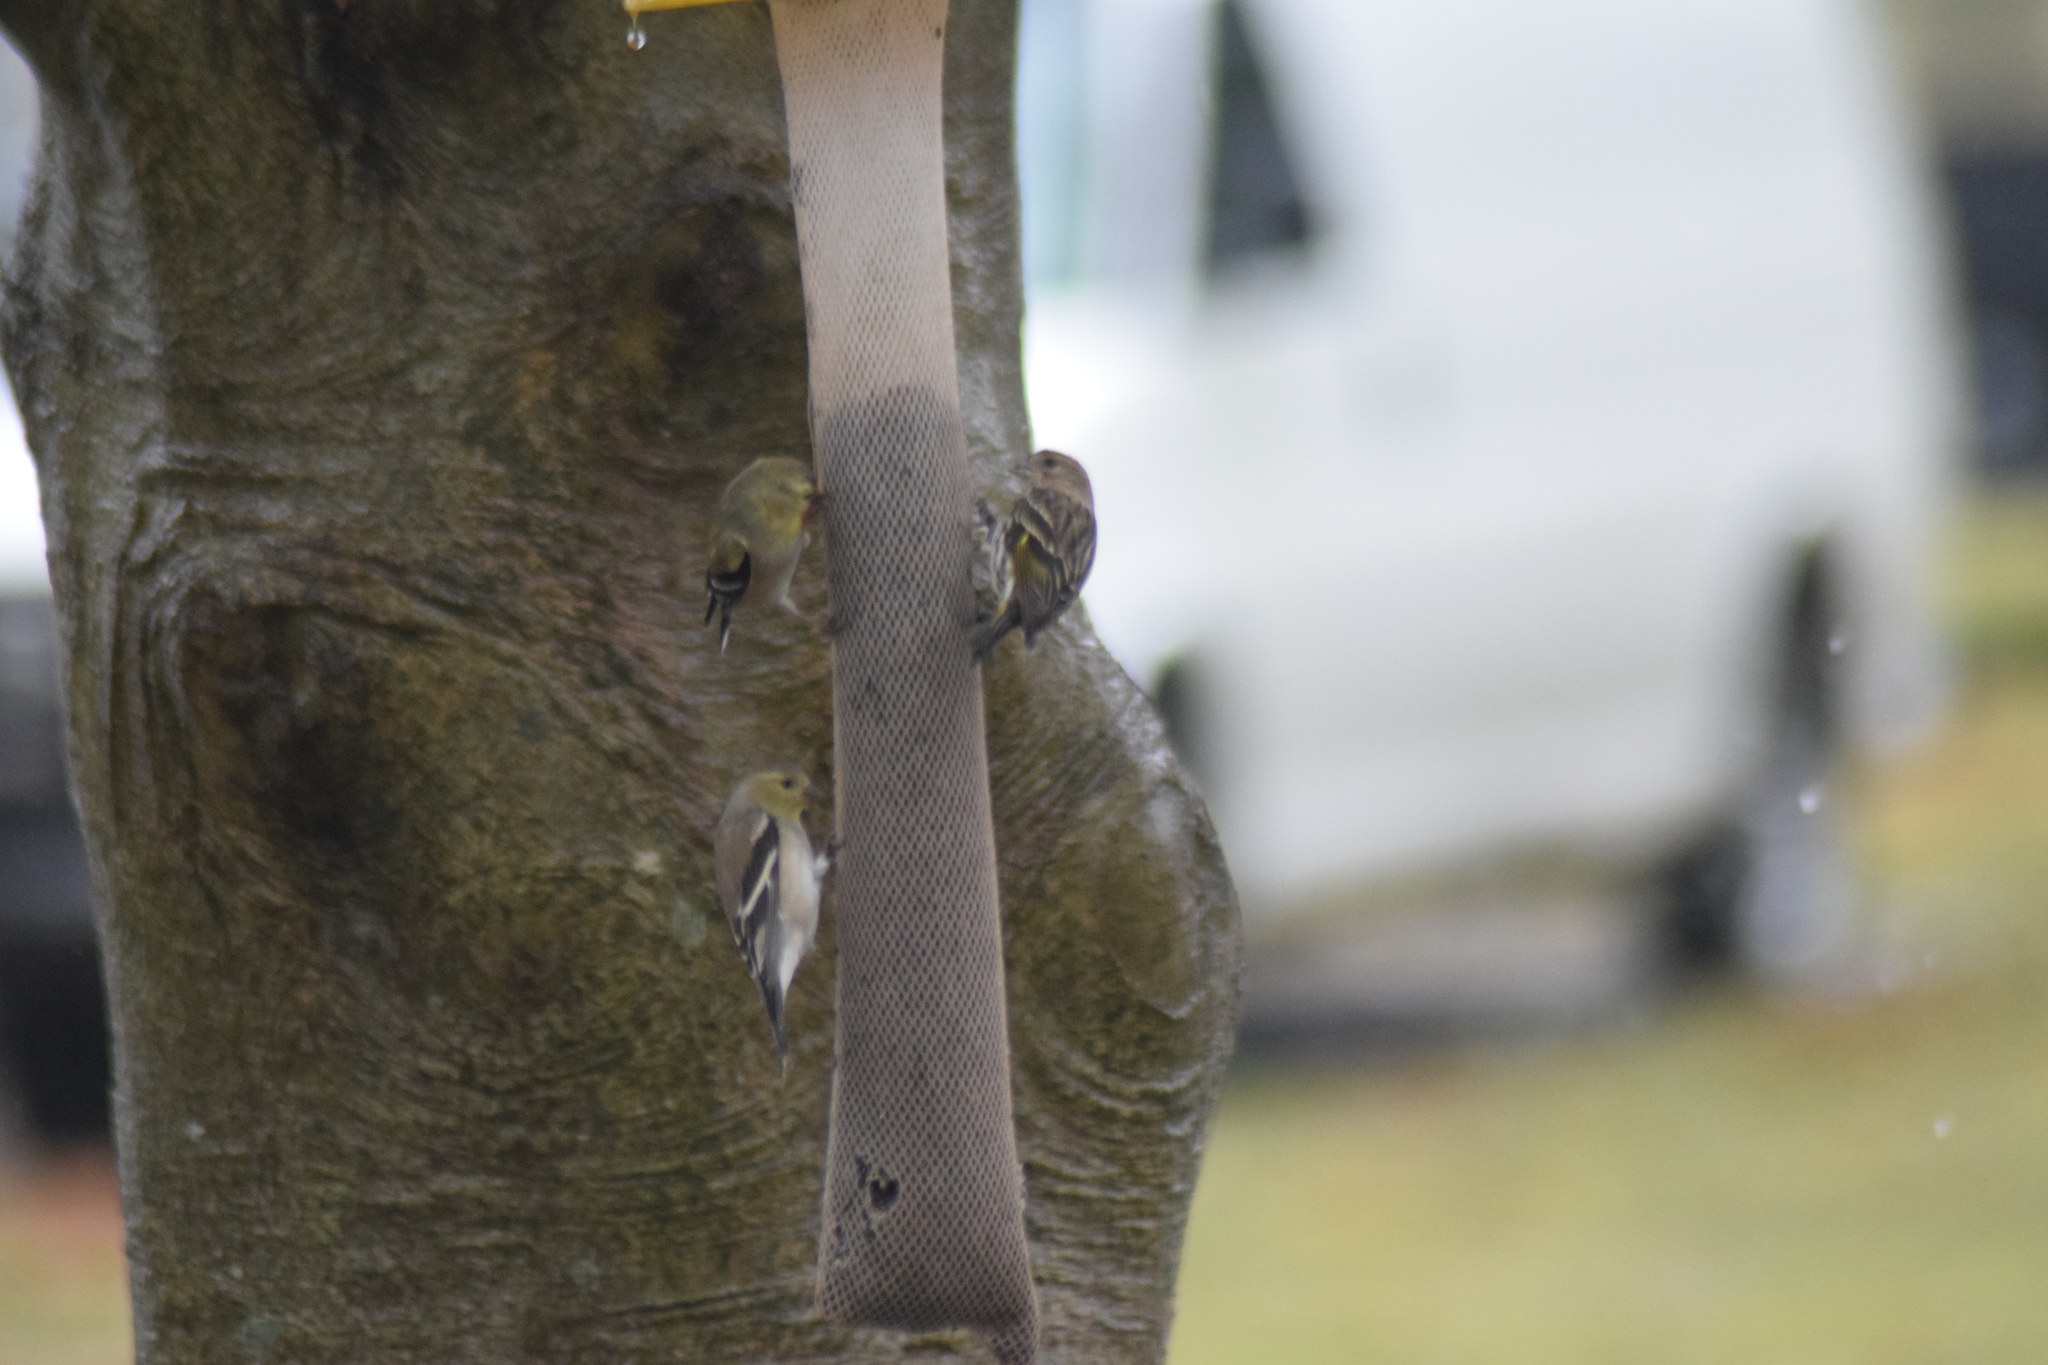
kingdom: Animalia
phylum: Chordata
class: Aves
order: Passeriformes
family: Fringillidae
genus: Spinus
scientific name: Spinus pinus
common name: Pine siskin
